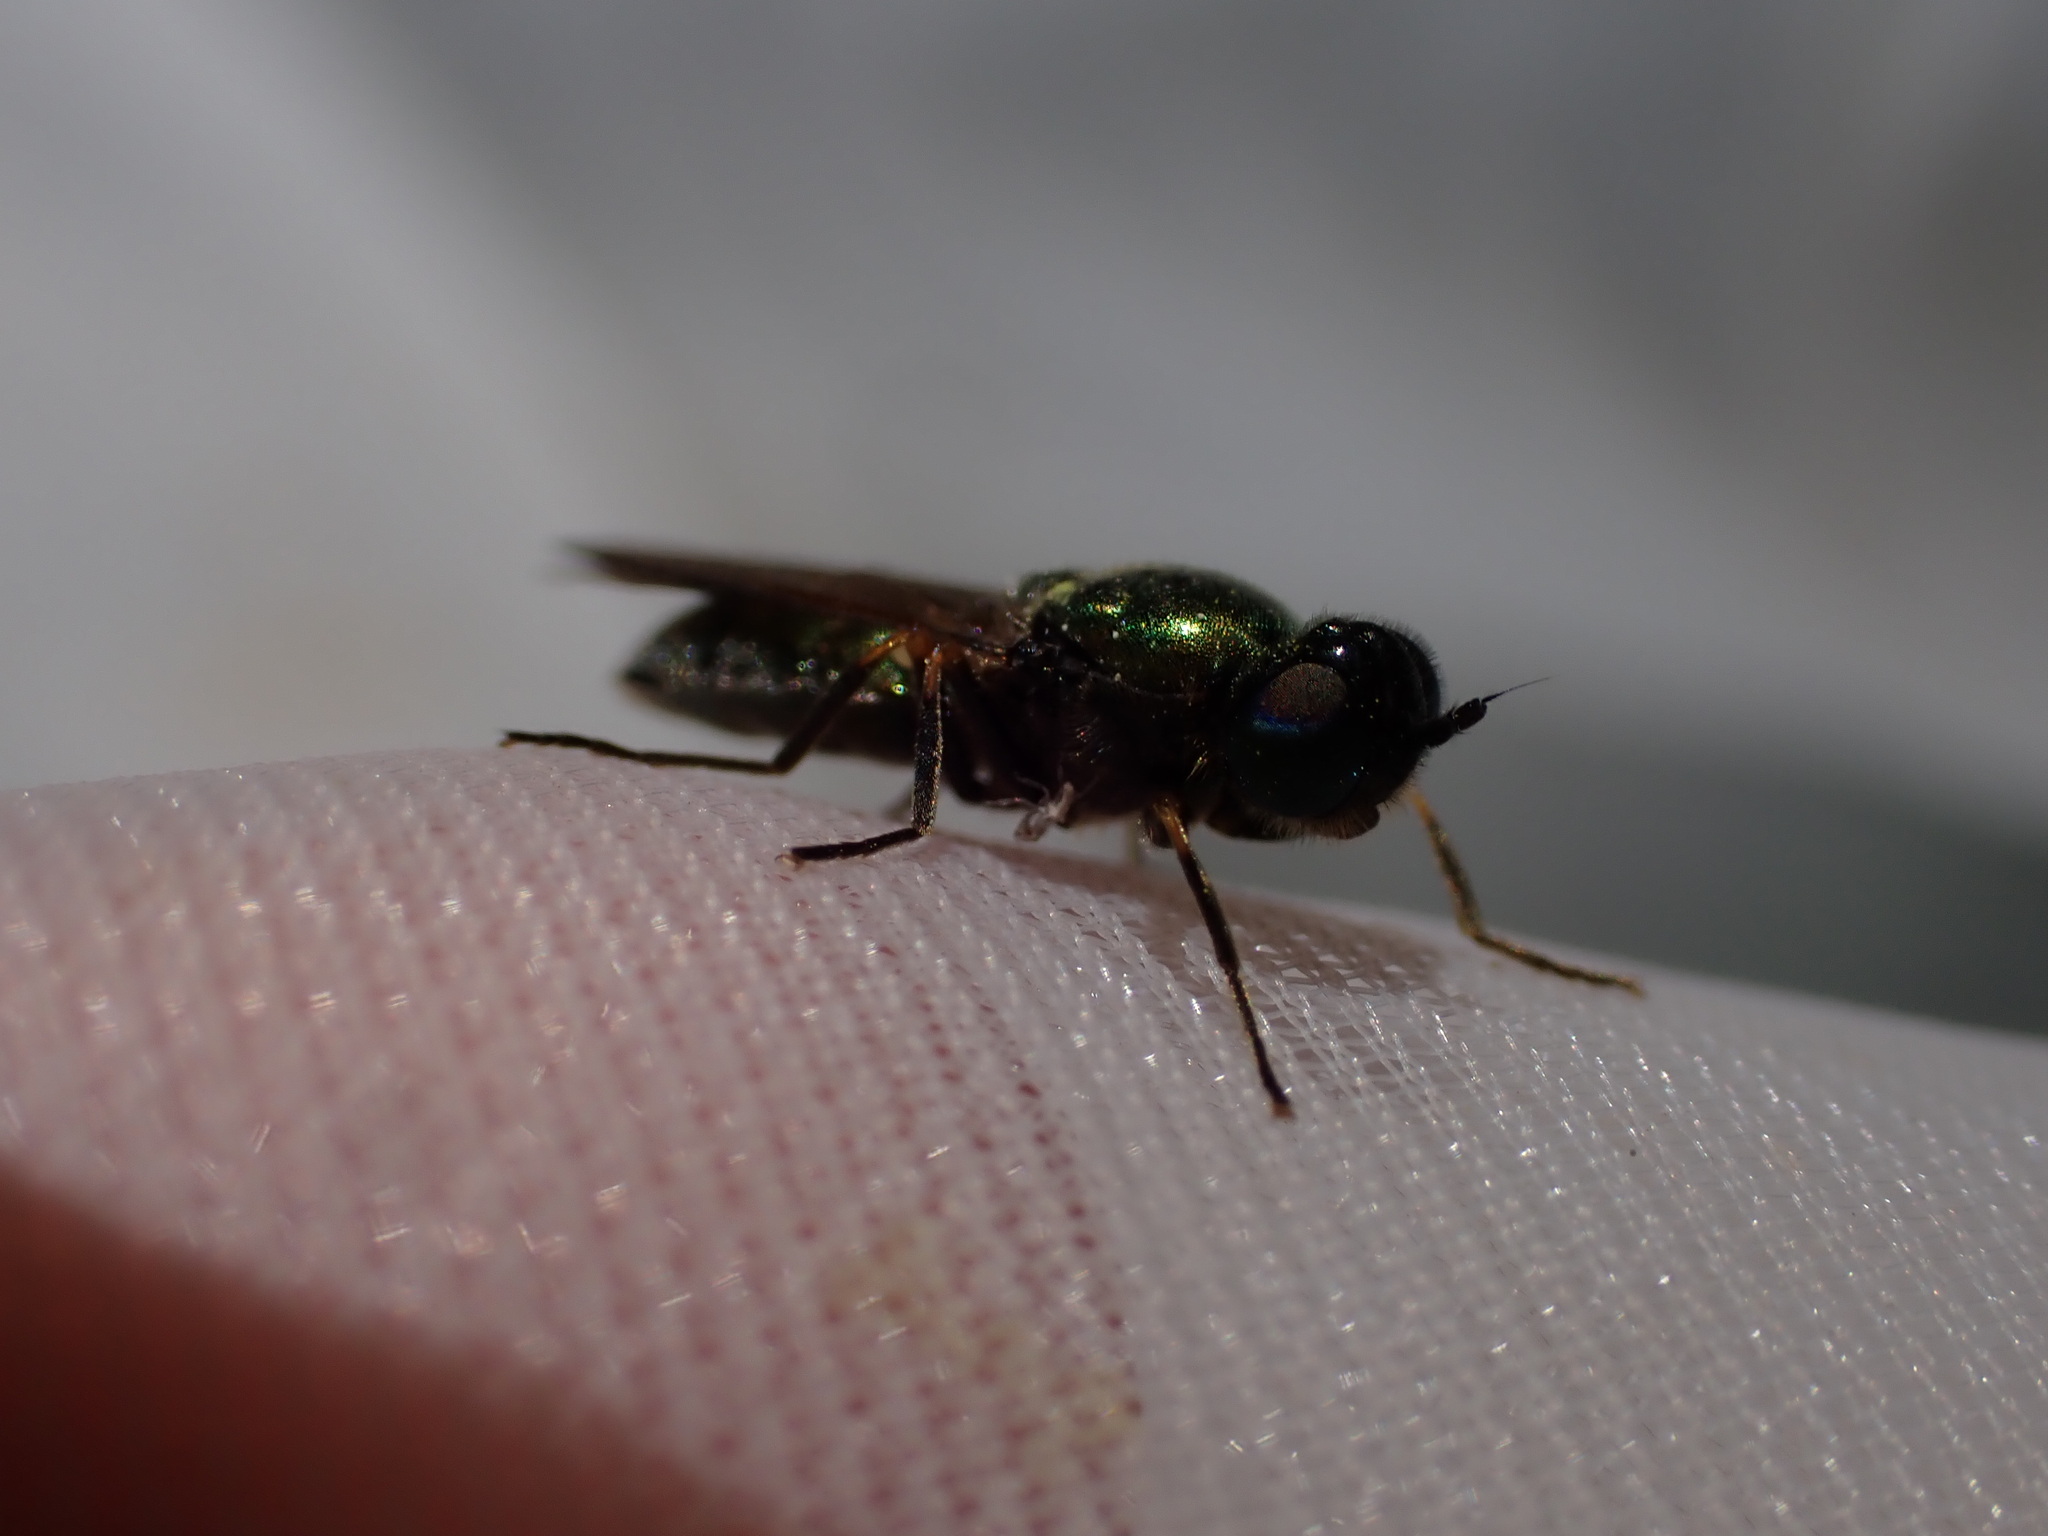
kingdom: Animalia
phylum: Arthropoda
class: Insecta
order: Diptera
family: Stratiomyidae
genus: Chloromyia
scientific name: Chloromyia formosa
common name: Soldier fly
